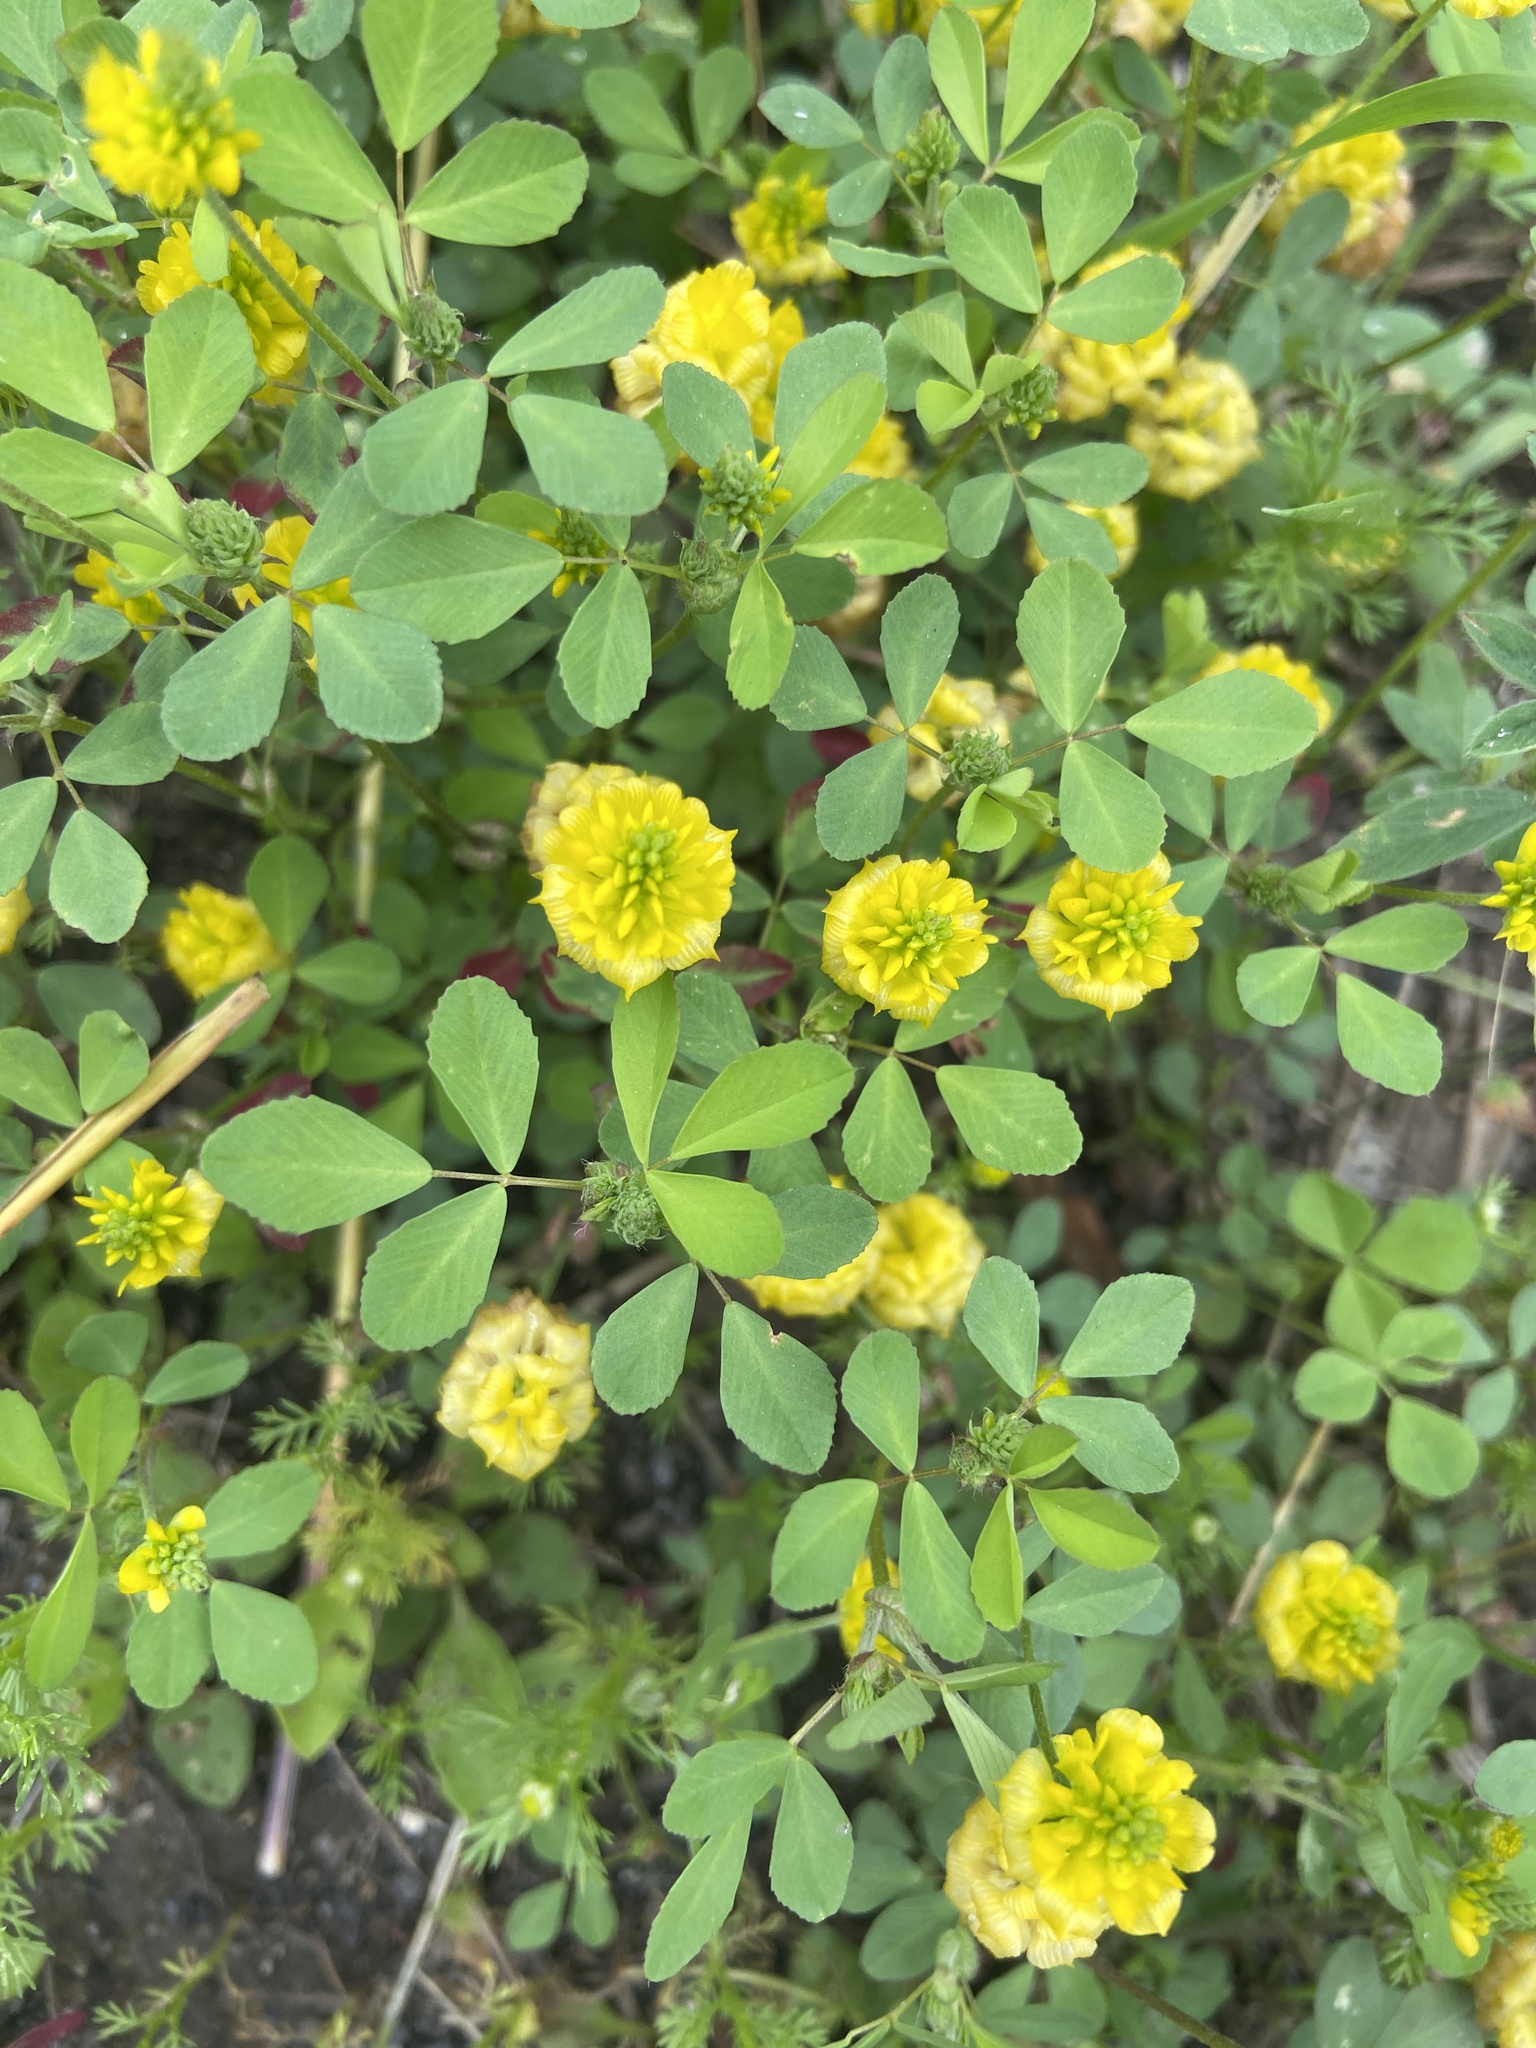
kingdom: Plantae
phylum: Tracheophyta
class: Magnoliopsida
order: Fabales
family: Fabaceae
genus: Trifolium
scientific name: Trifolium campestre
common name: Field clover
